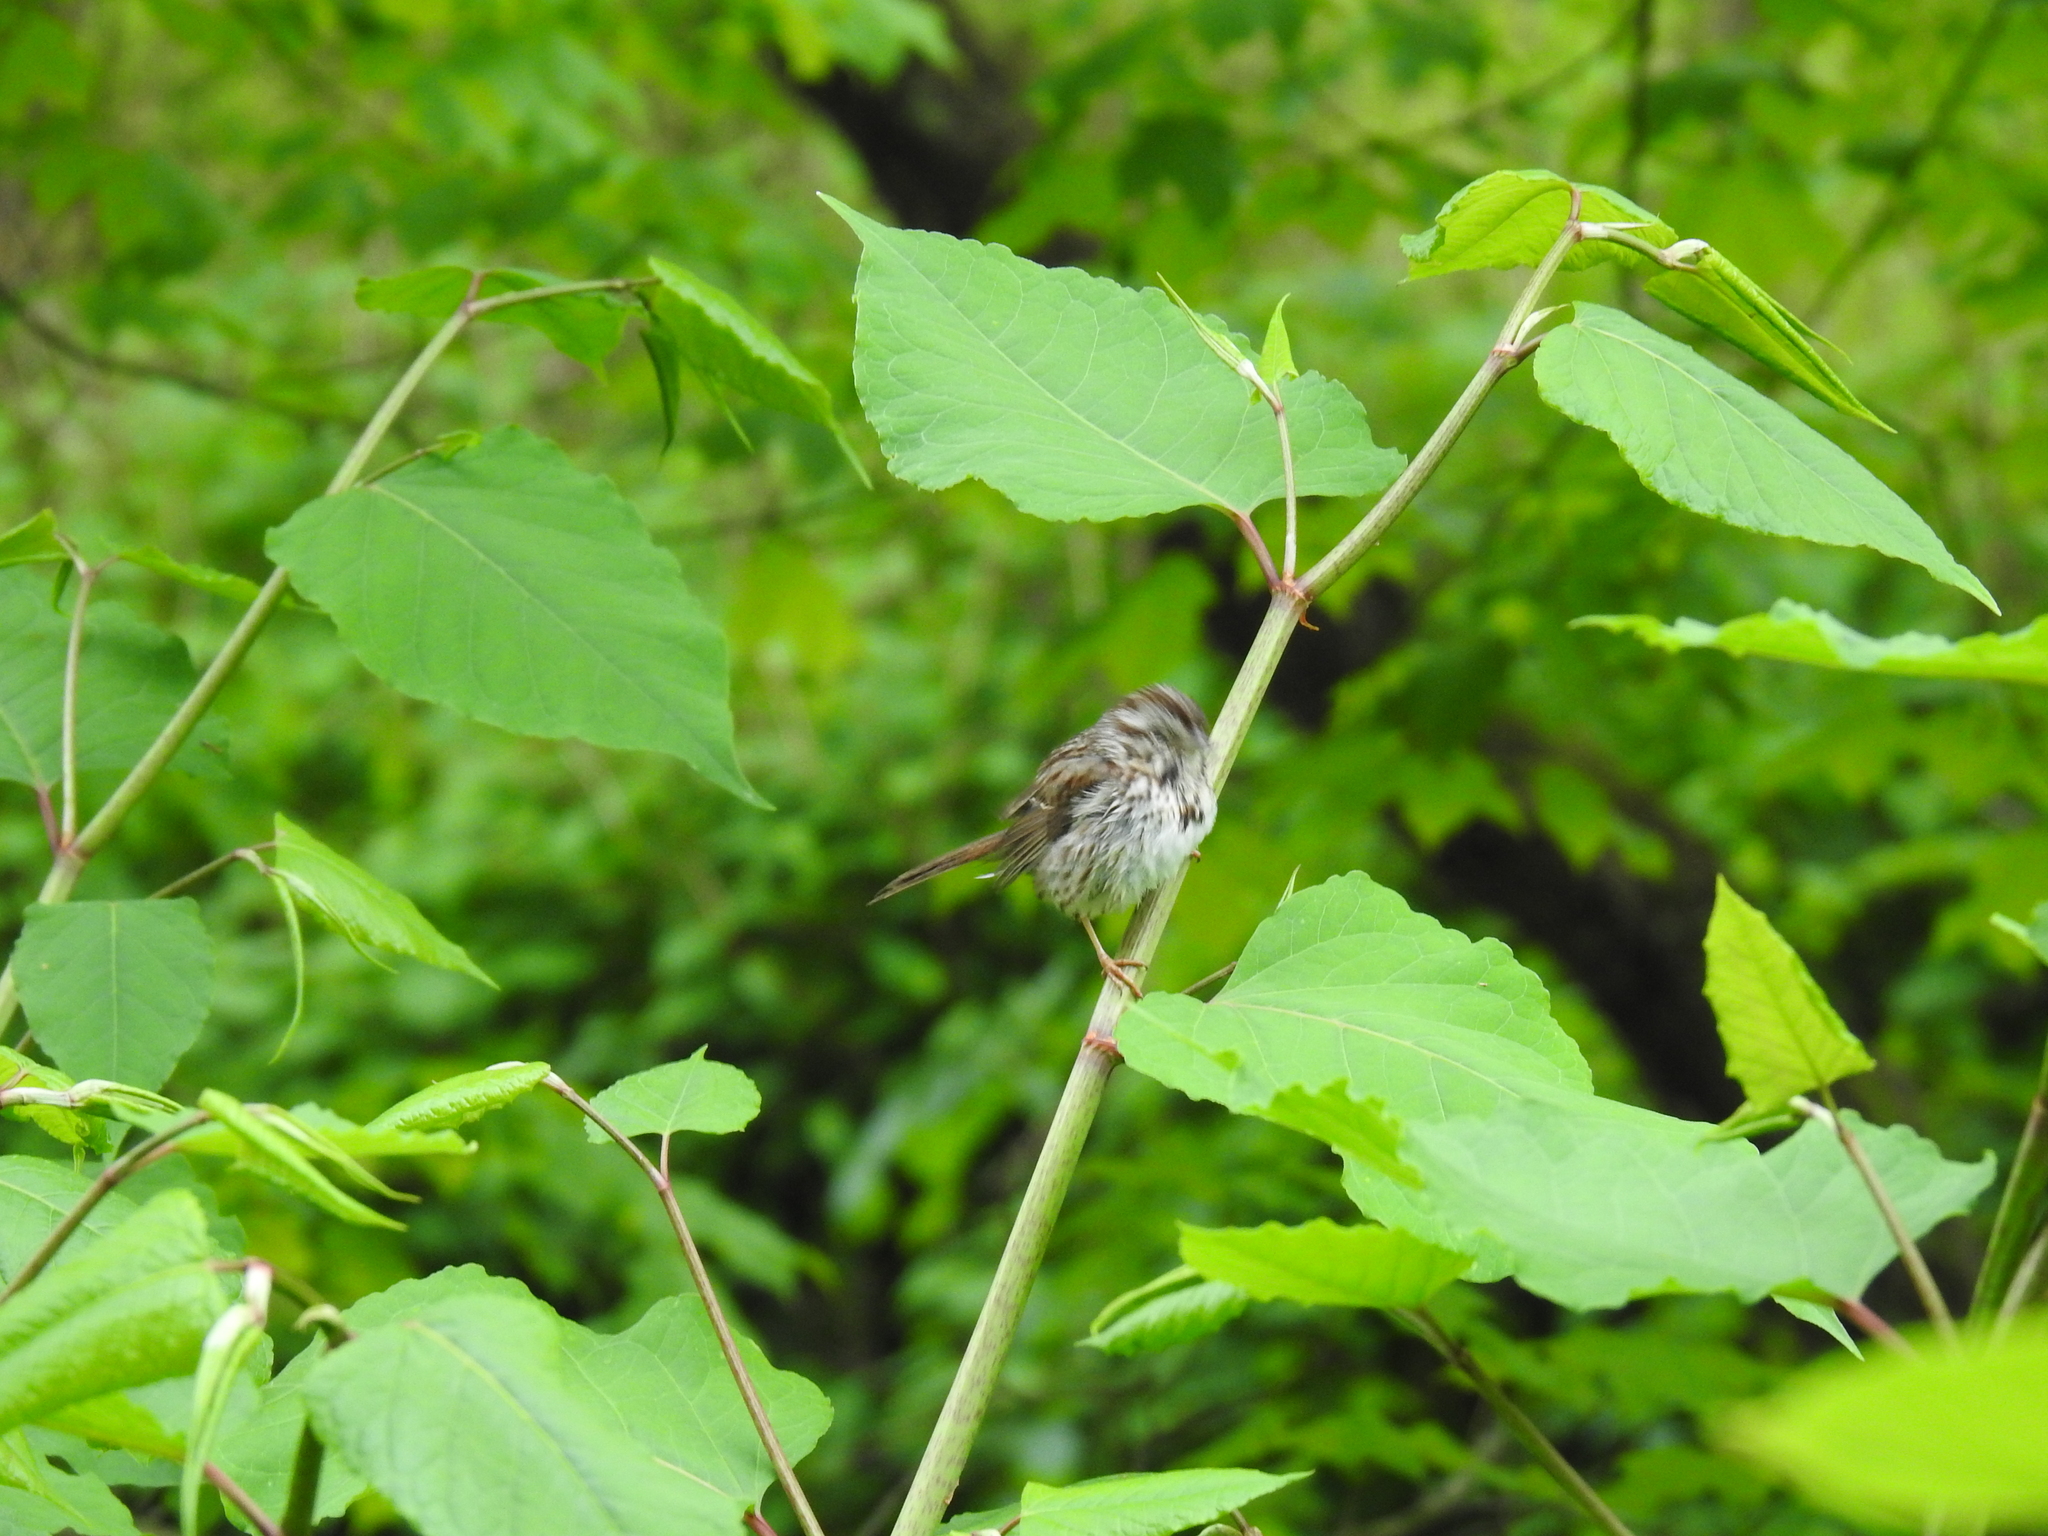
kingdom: Animalia
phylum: Chordata
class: Aves
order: Passeriformes
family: Passerellidae
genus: Melospiza
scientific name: Melospiza melodia
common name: Song sparrow
